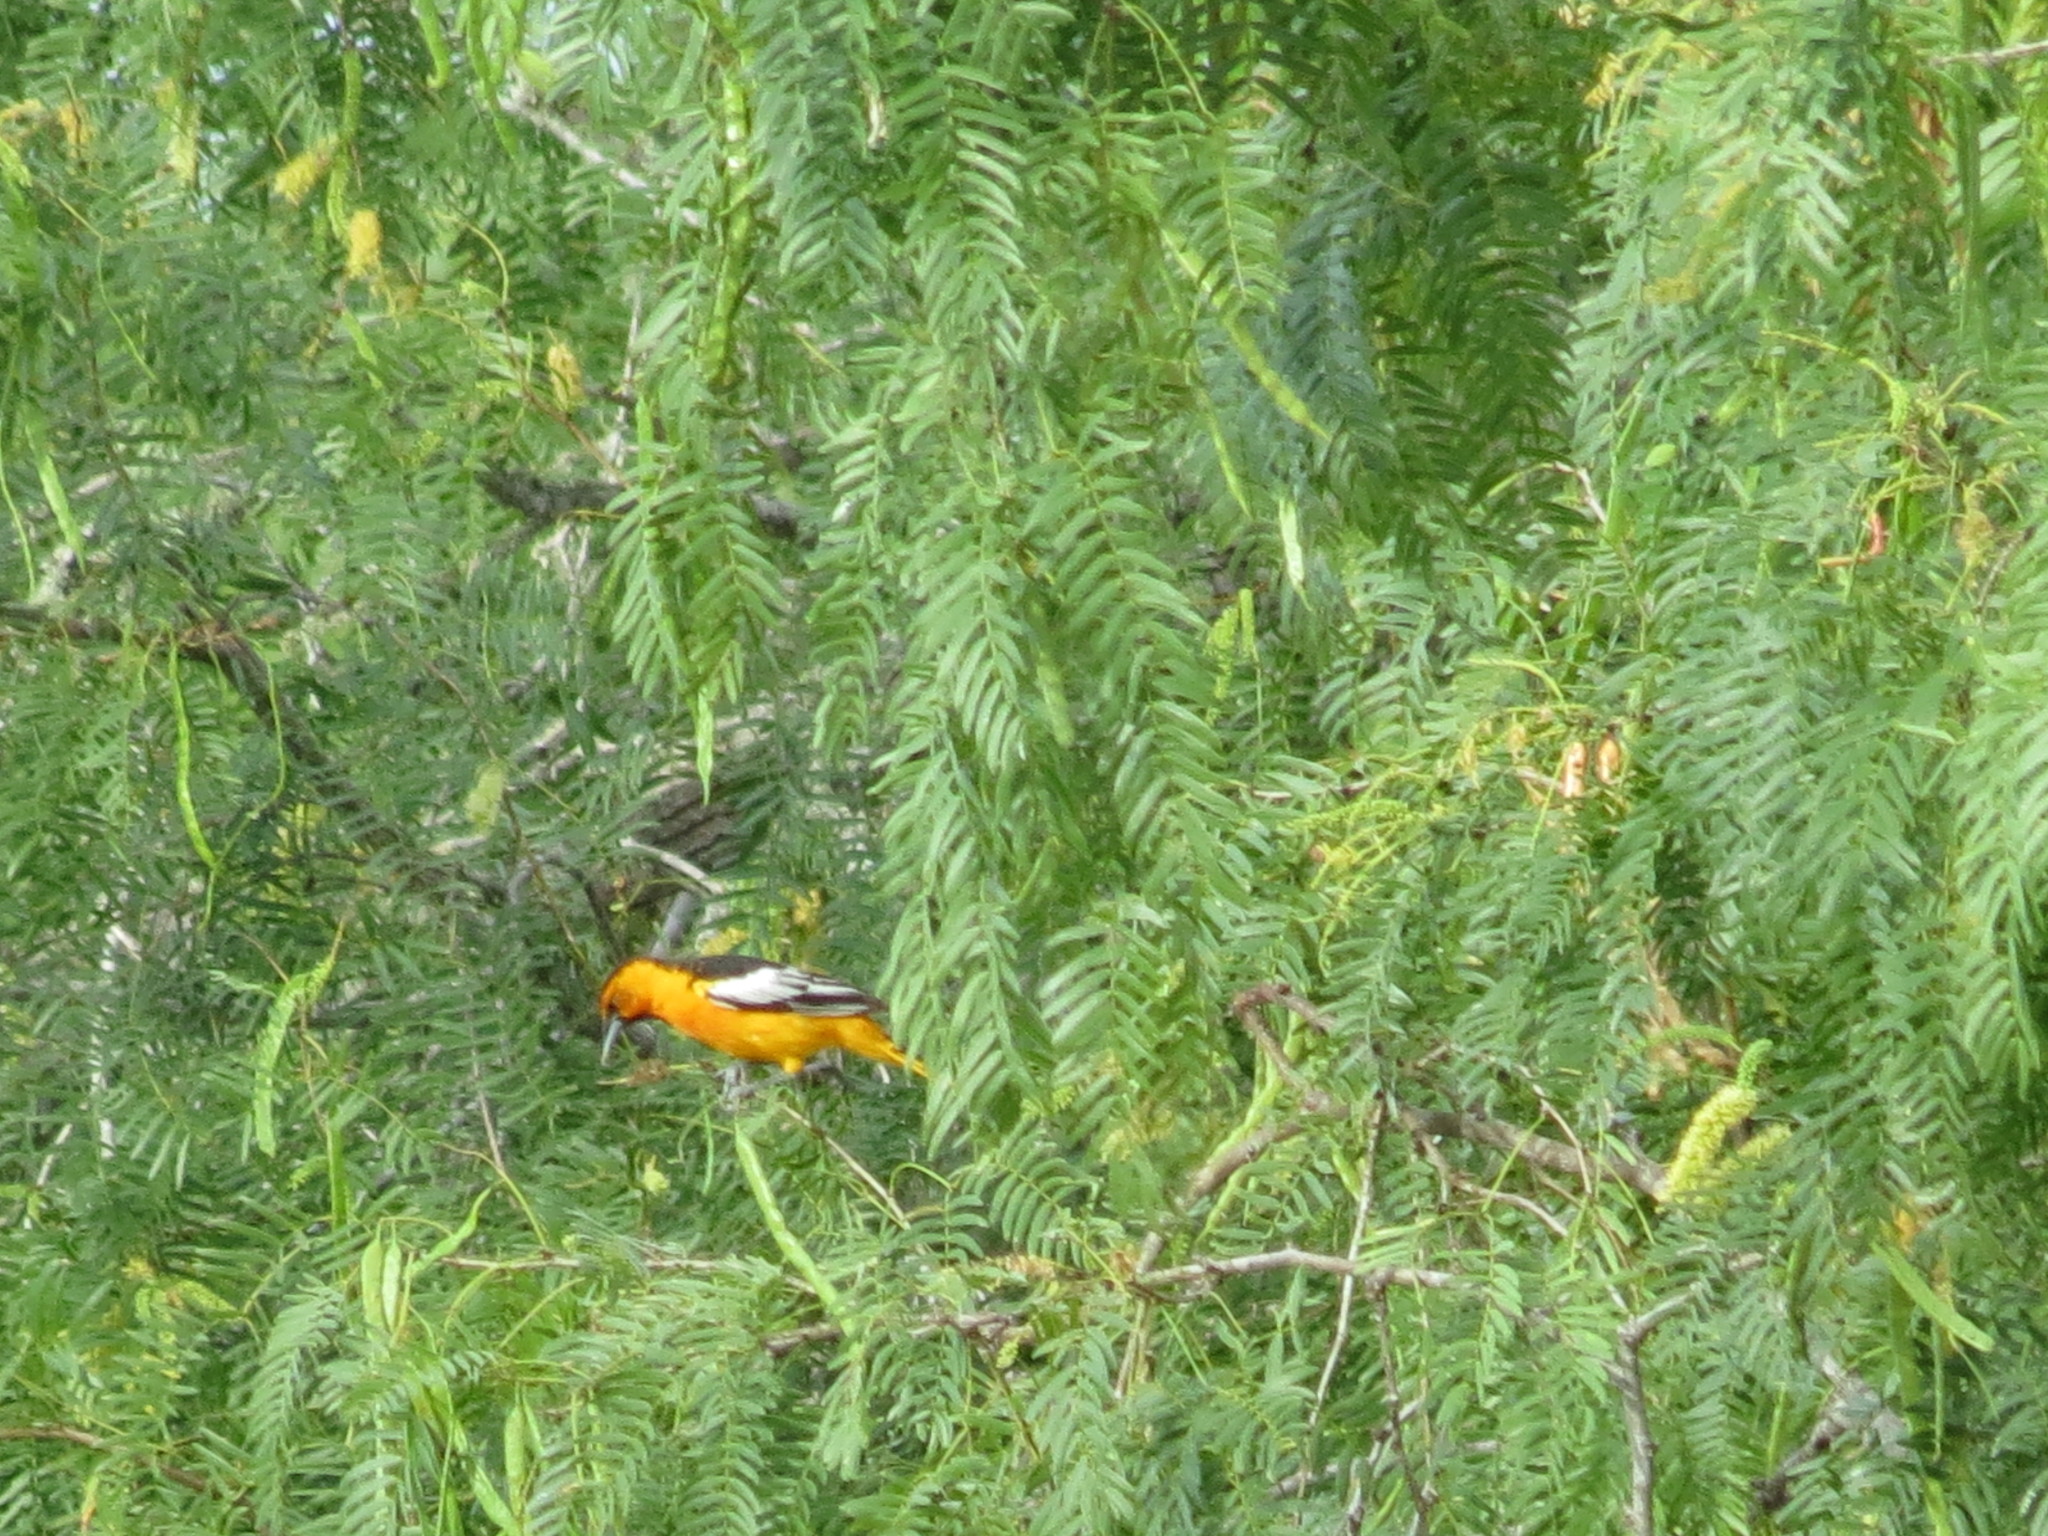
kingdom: Animalia
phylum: Chordata
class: Aves
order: Passeriformes
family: Icteridae
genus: Icterus
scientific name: Icterus bullockii
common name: Bullock's oriole
